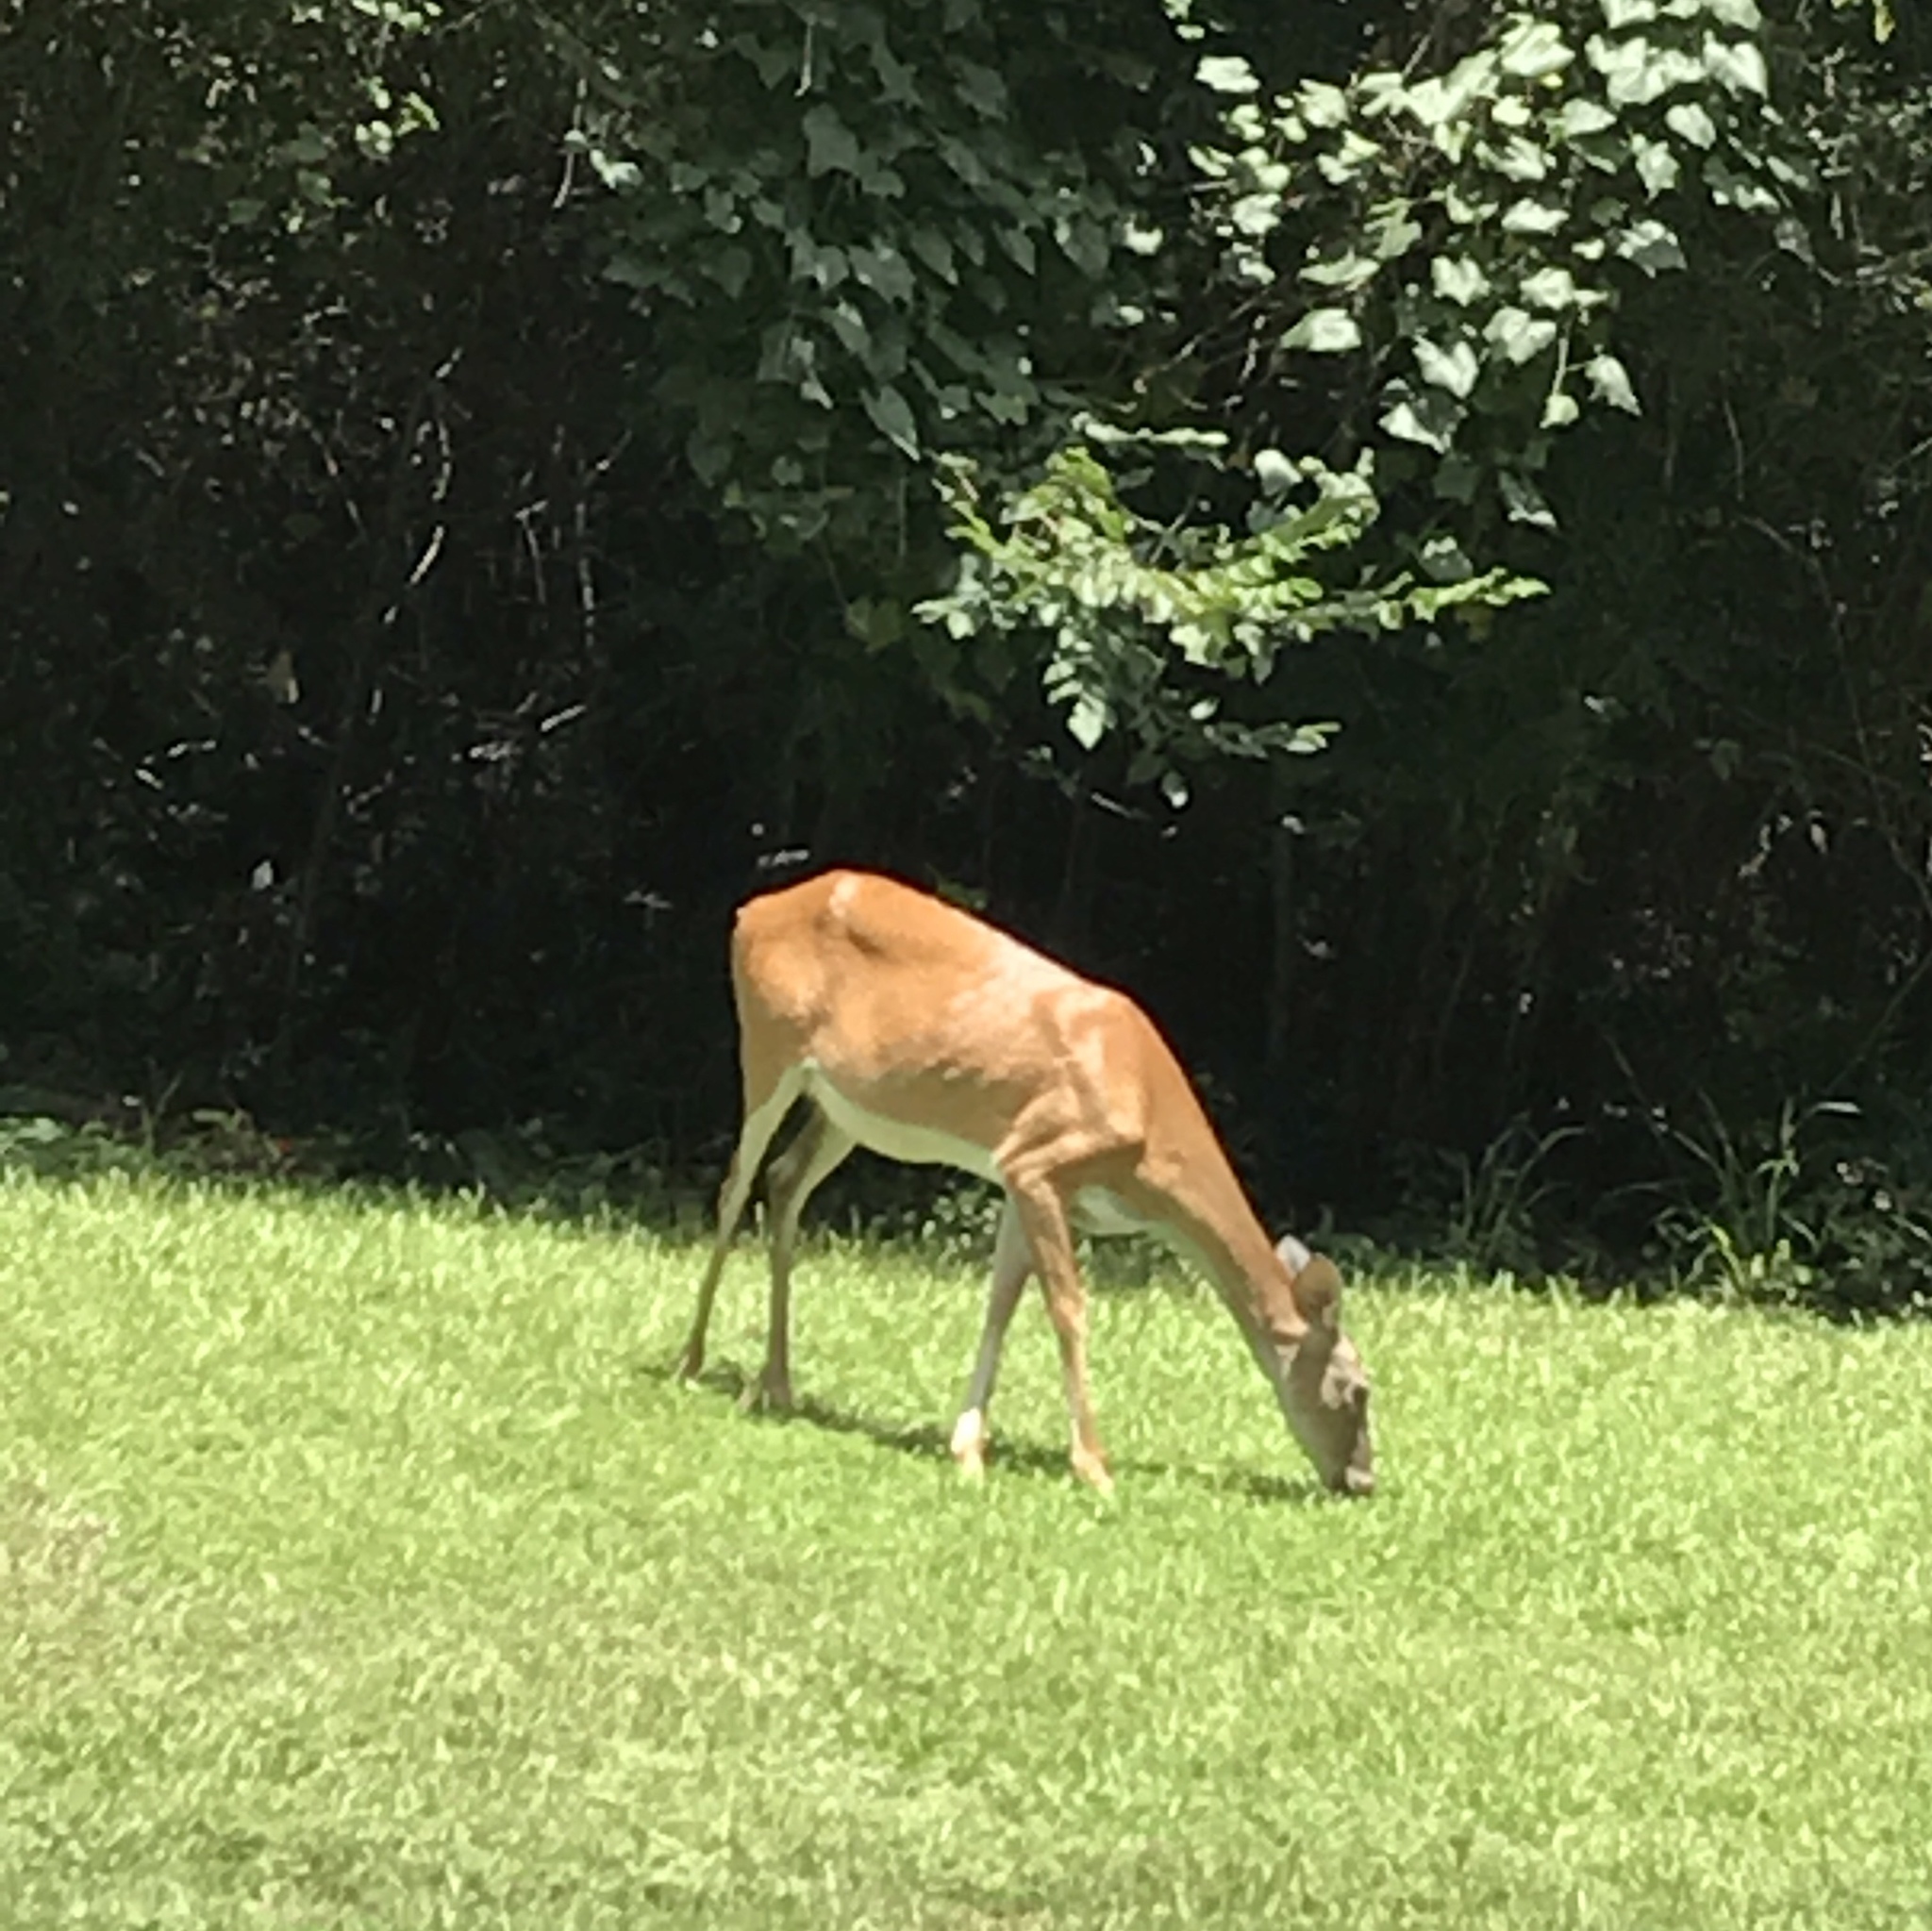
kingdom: Animalia
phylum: Chordata
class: Mammalia
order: Artiodactyla
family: Cervidae
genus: Odocoileus
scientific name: Odocoileus virginianus
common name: White-tailed deer
